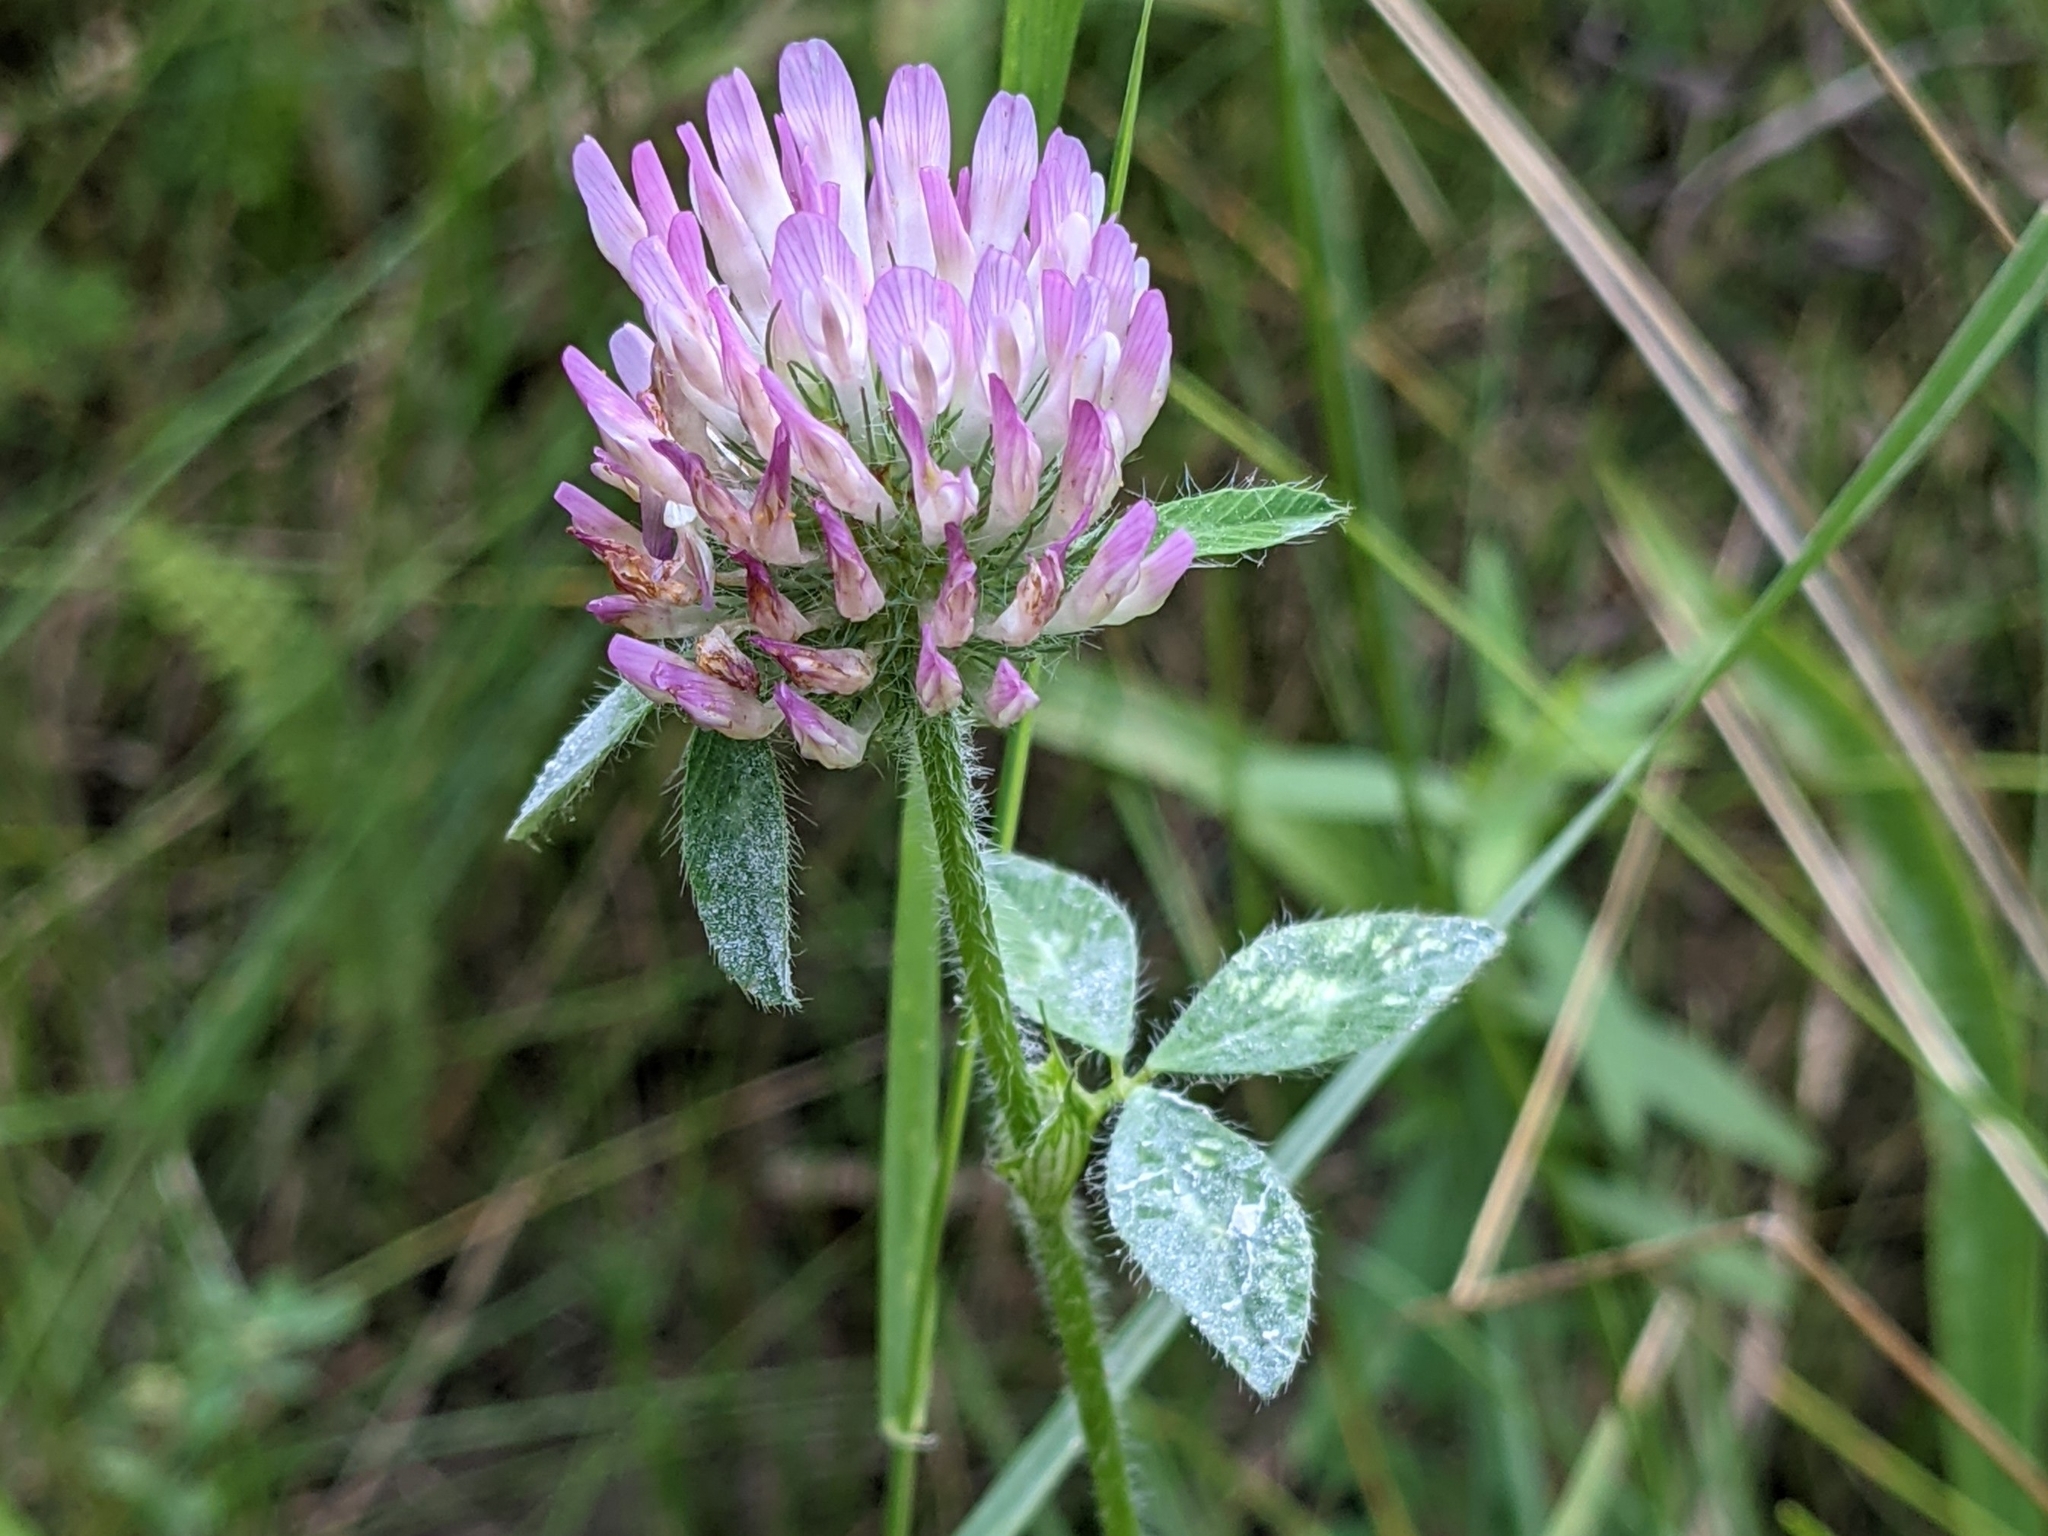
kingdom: Plantae
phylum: Tracheophyta
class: Magnoliopsida
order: Fabales
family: Fabaceae
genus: Trifolium
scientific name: Trifolium pratense
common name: Red clover
